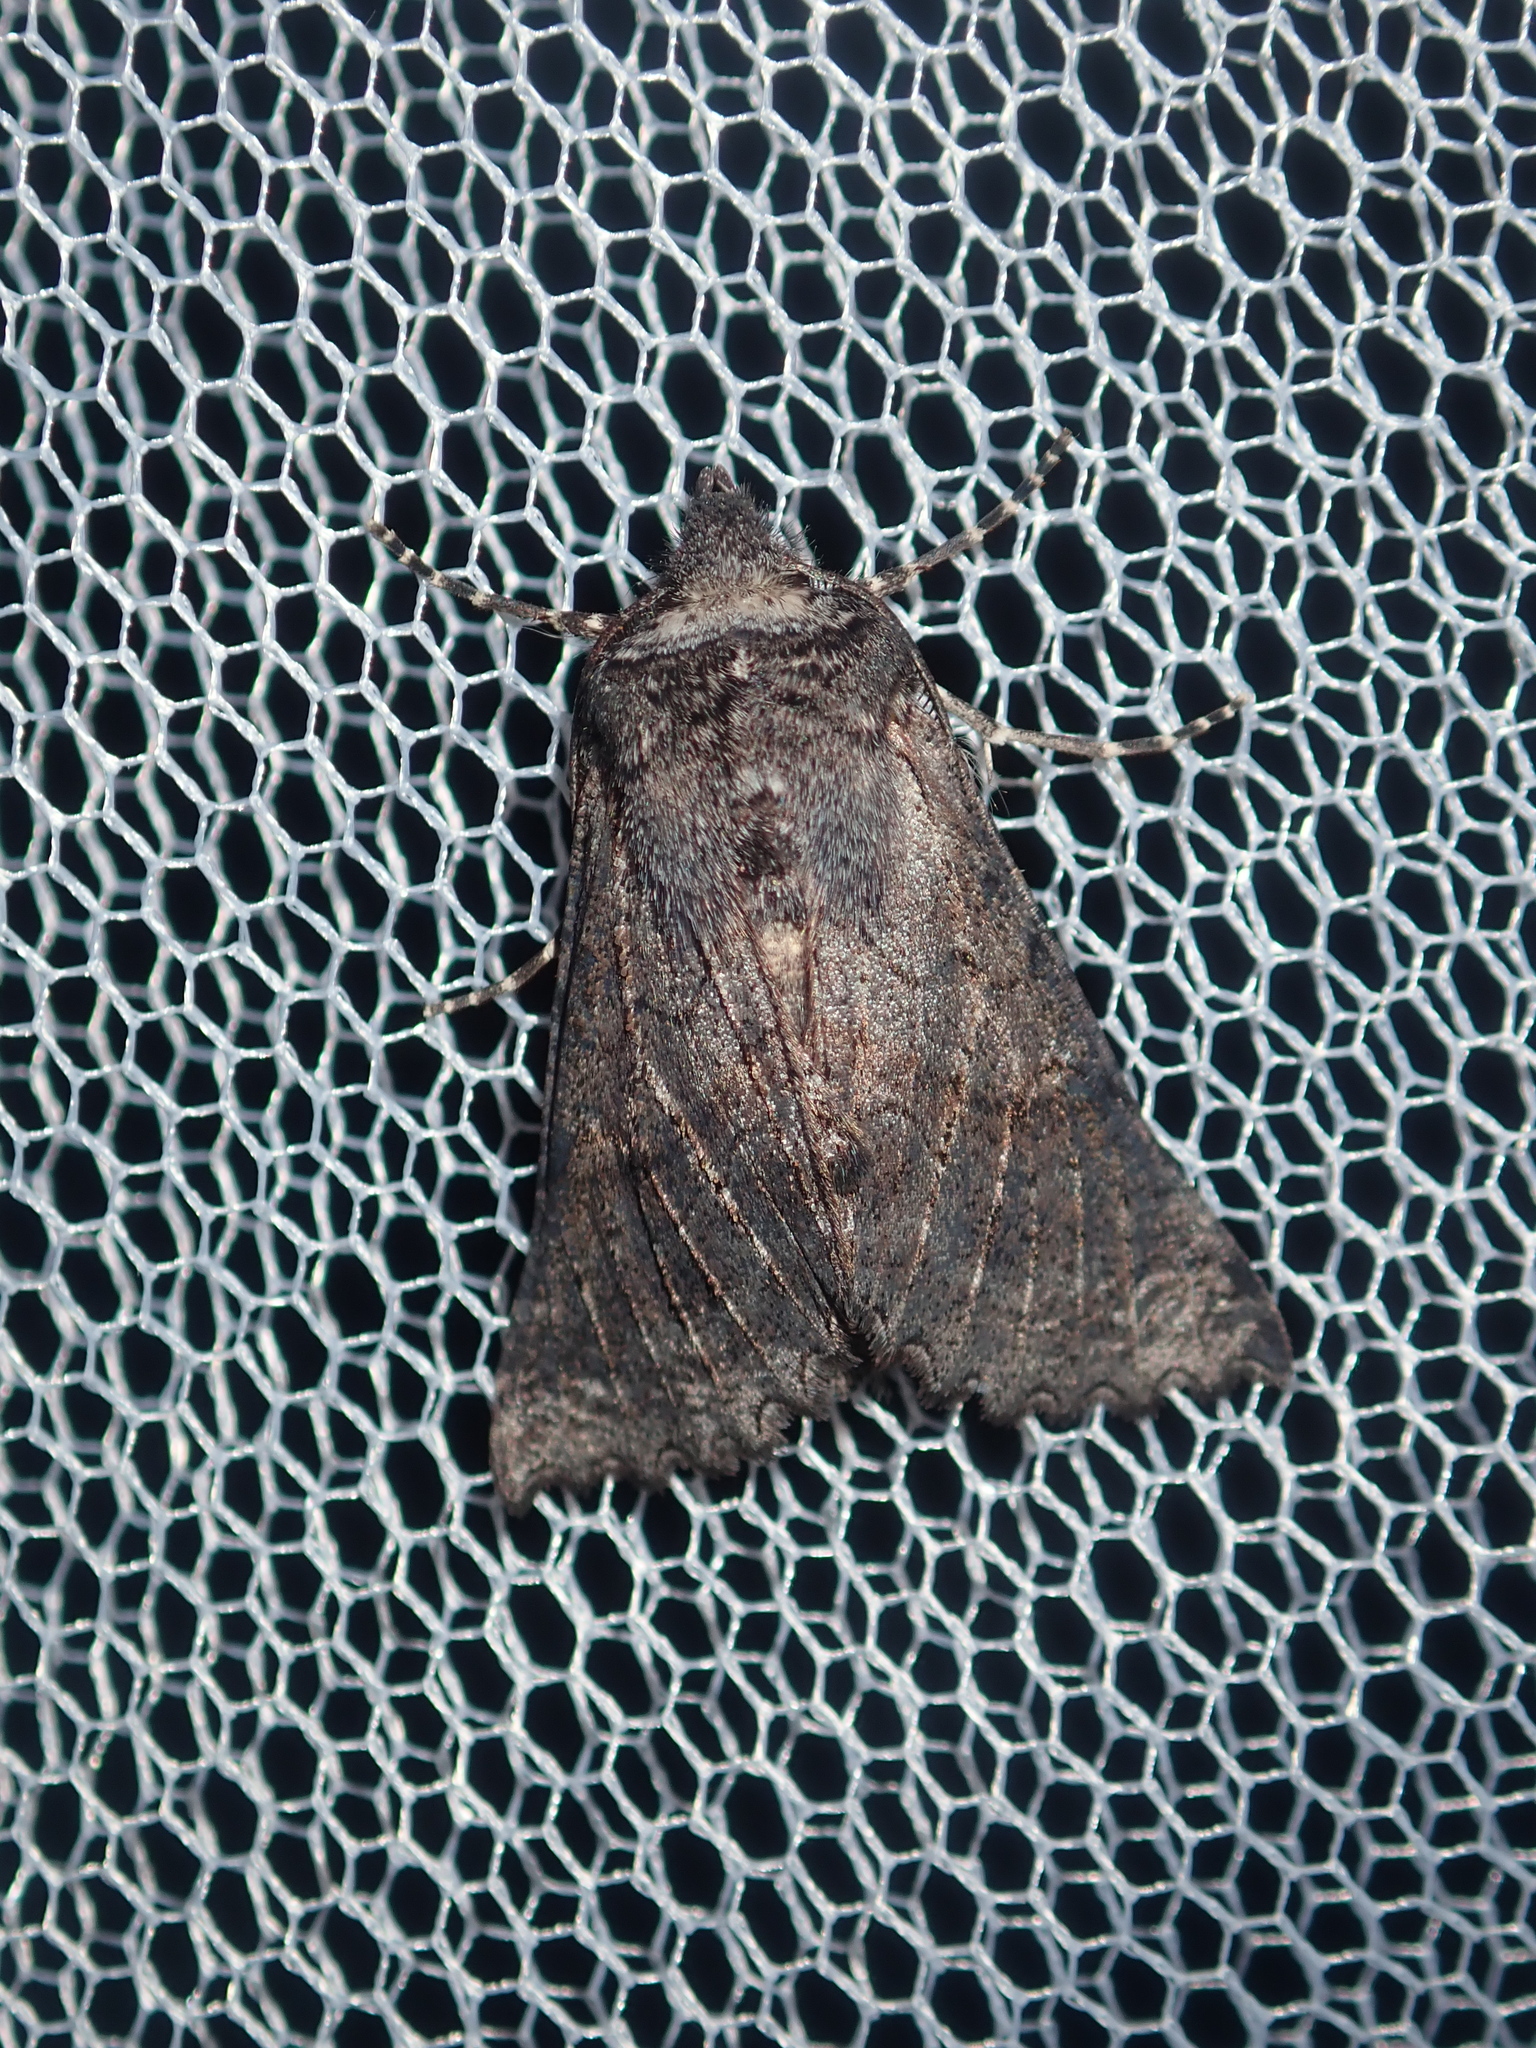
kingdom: Animalia
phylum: Arthropoda
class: Insecta
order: Lepidoptera
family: Geometridae
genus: Dinophalus
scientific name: Dinophalus atmoscia
